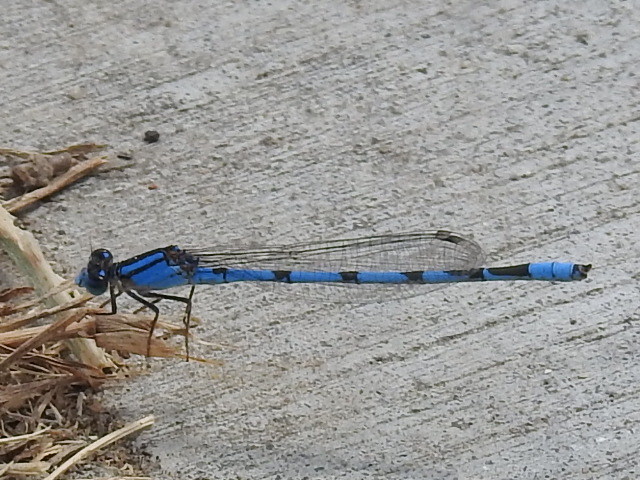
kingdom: Animalia
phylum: Arthropoda
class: Insecta
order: Odonata
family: Coenagrionidae
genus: Enallagma
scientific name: Enallagma civile
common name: Damselfly
